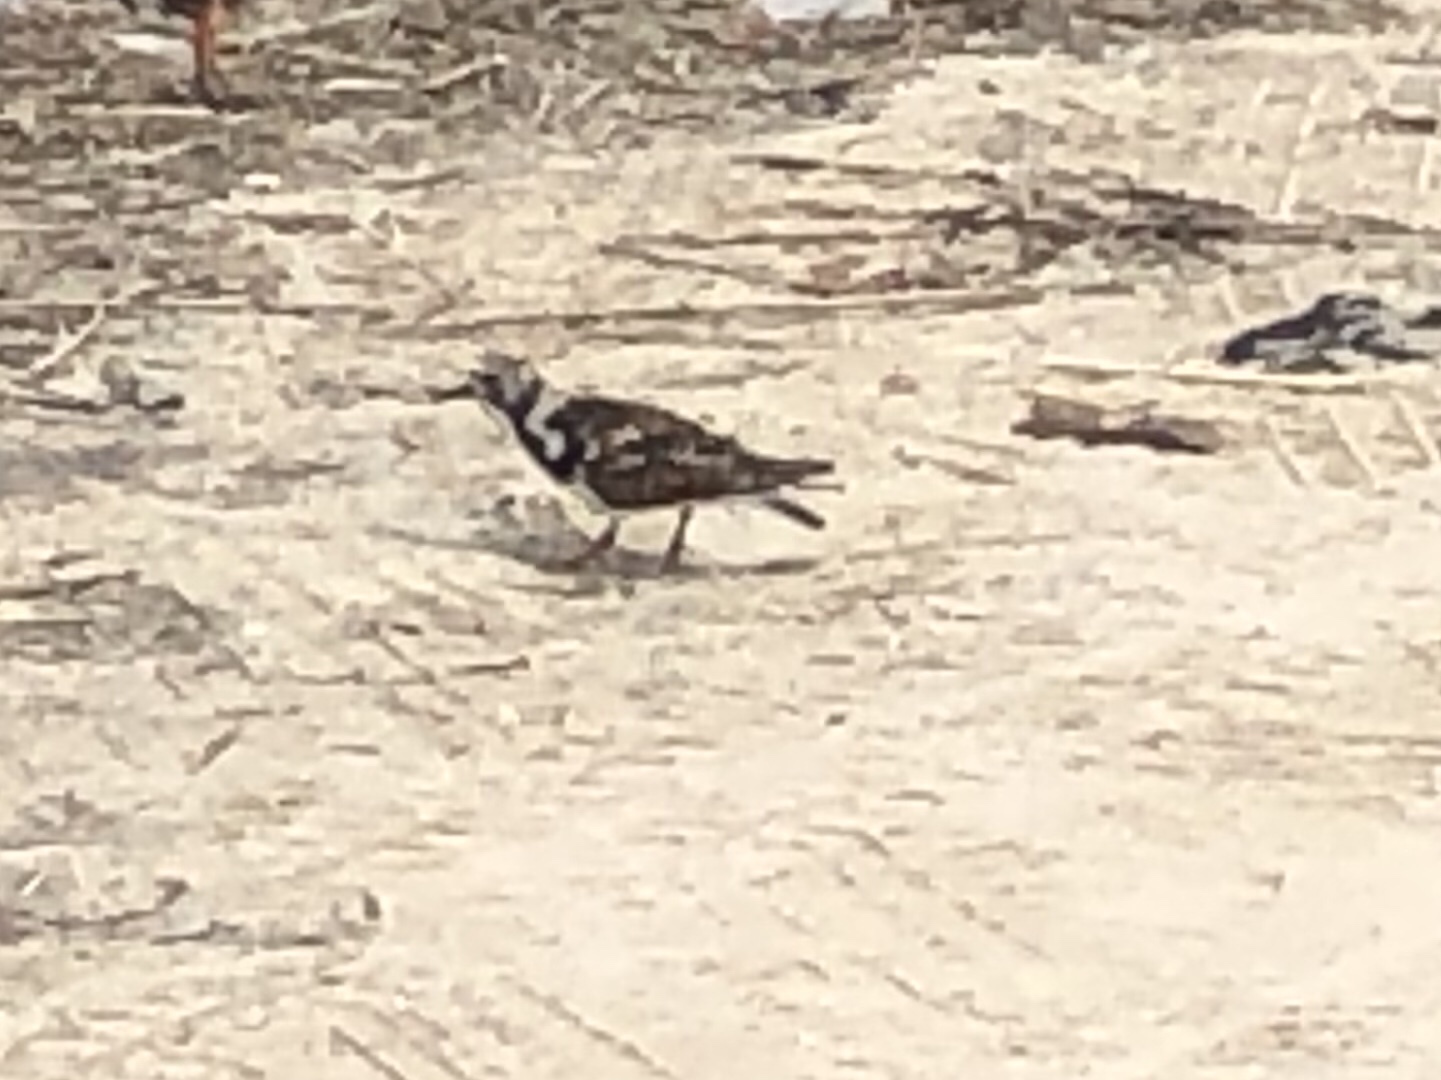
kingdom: Animalia
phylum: Chordata
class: Aves
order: Charadriiformes
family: Scolopacidae
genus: Arenaria
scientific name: Arenaria interpres
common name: Ruddy turnstone
